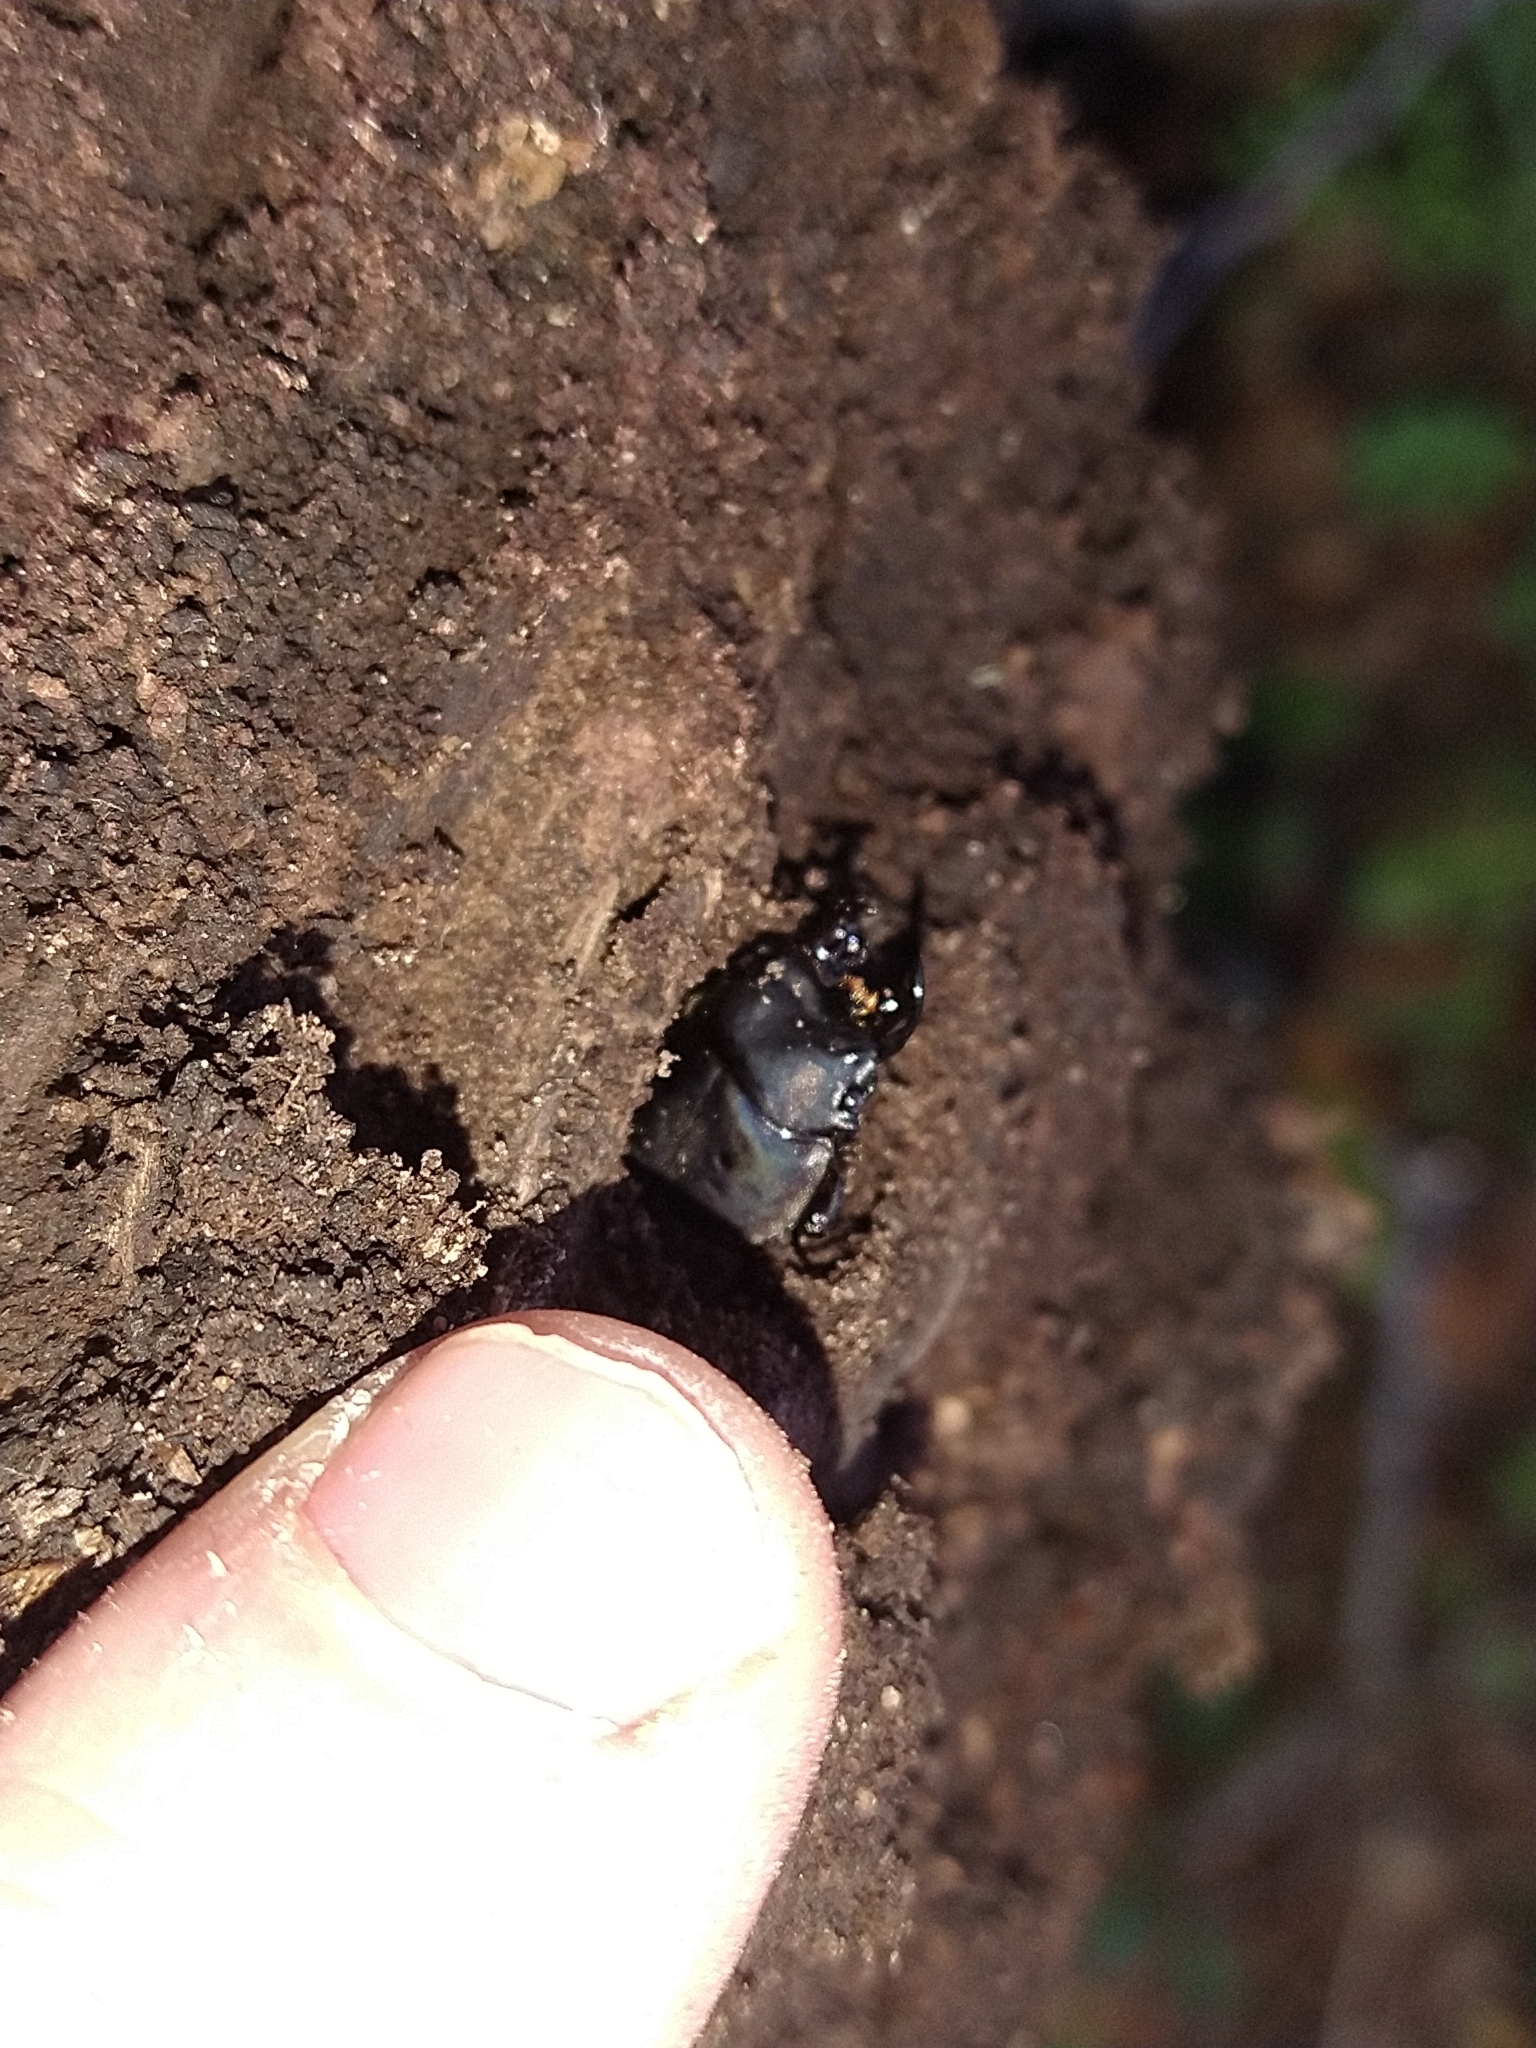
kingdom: Animalia
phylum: Arthropoda
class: Insecta
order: Coleoptera
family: Lucanidae
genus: Erichius
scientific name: Erichius femoralis
